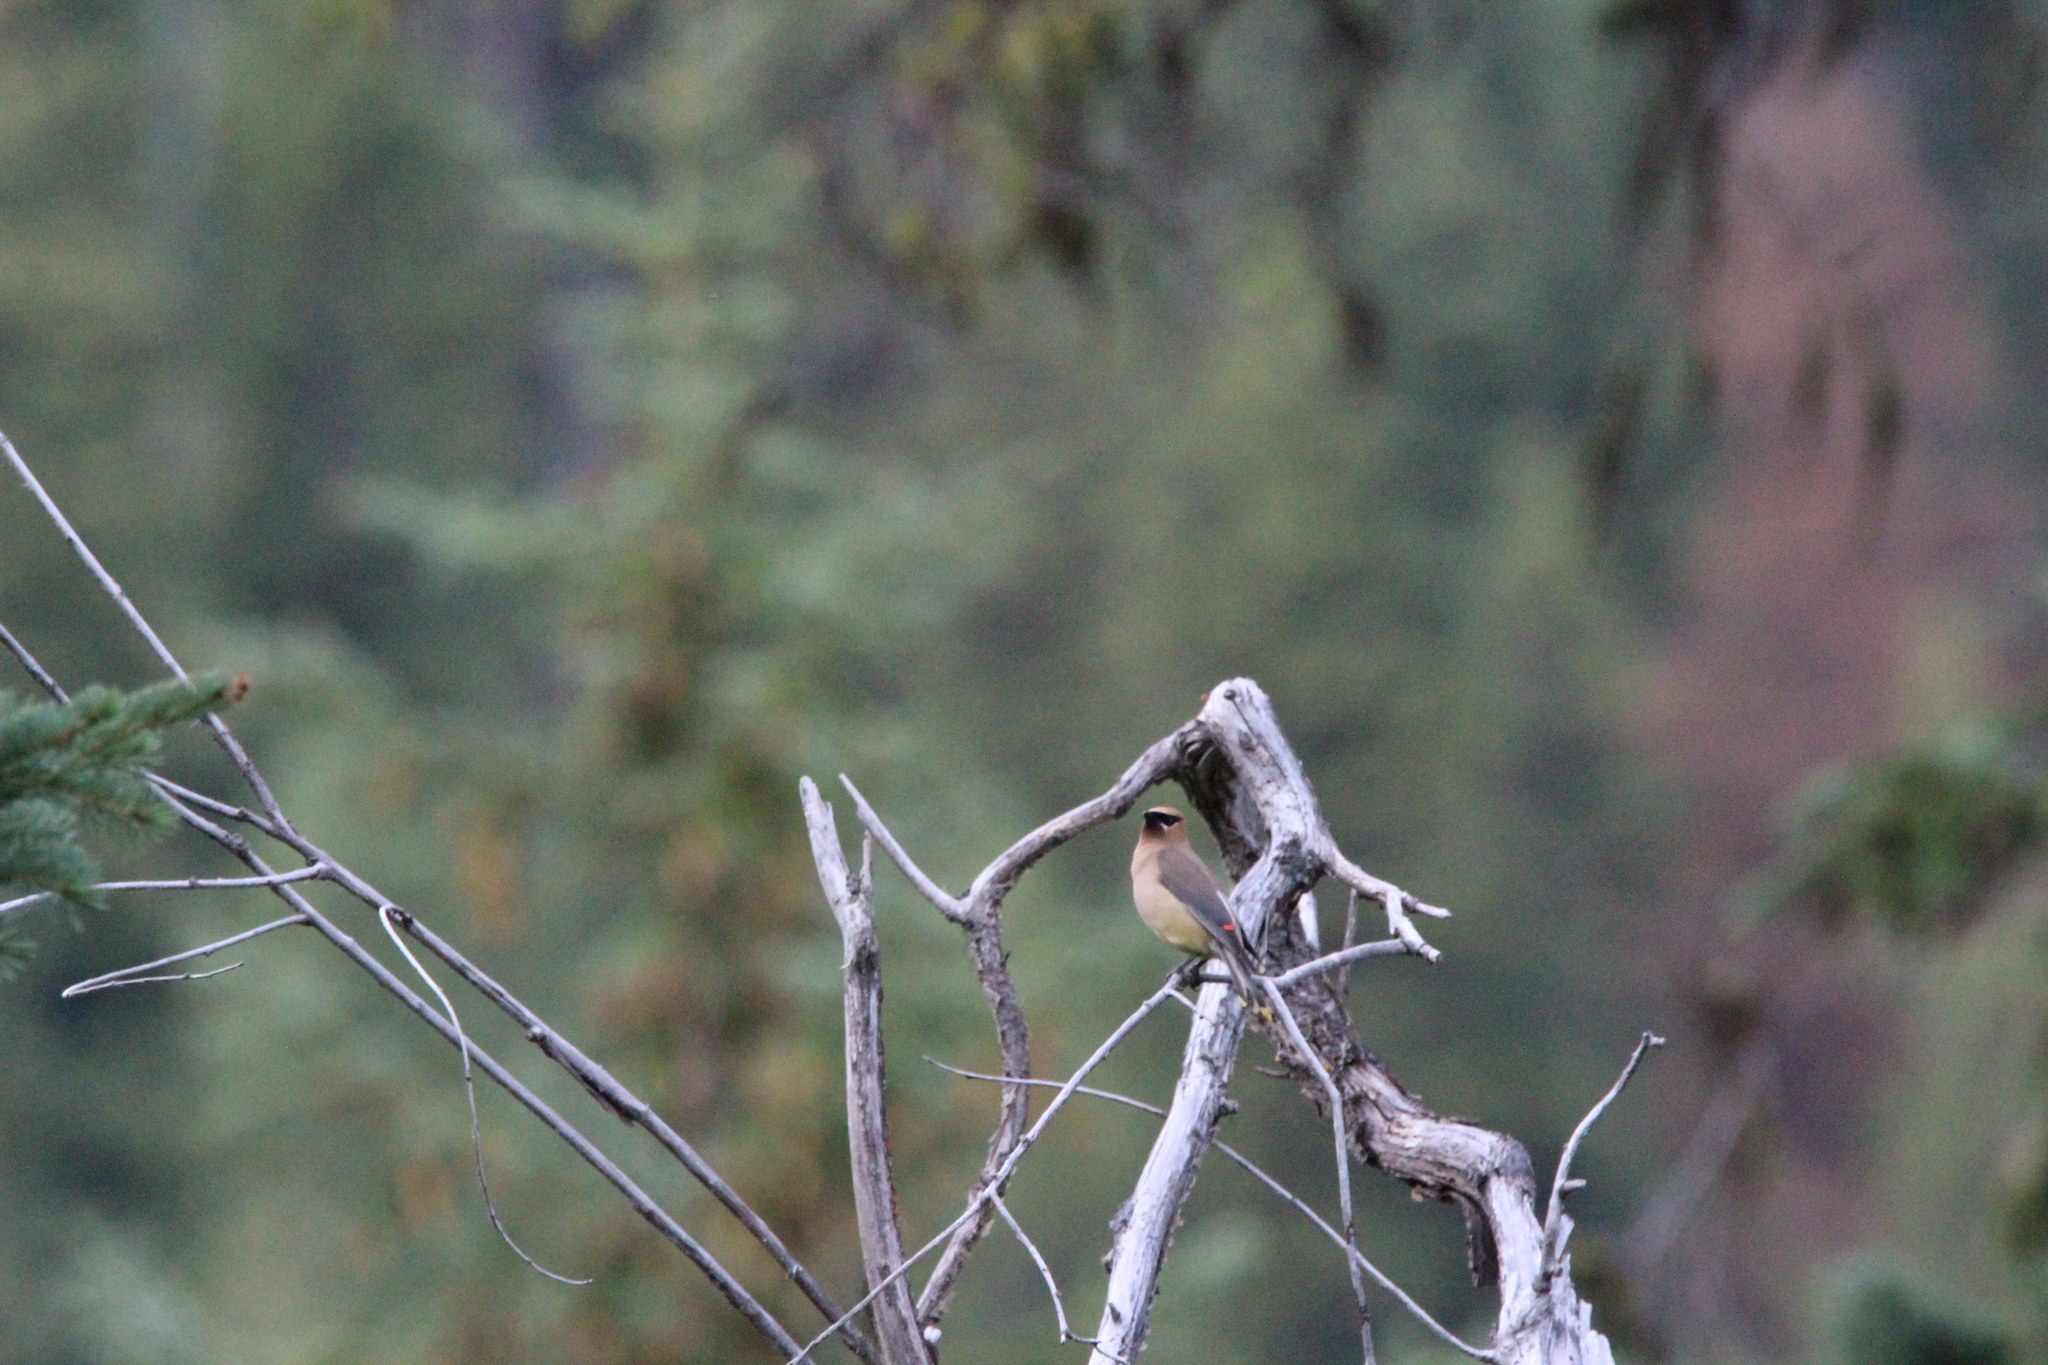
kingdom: Animalia
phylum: Chordata
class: Aves
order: Passeriformes
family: Bombycillidae
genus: Bombycilla
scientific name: Bombycilla cedrorum
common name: Cedar waxwing
